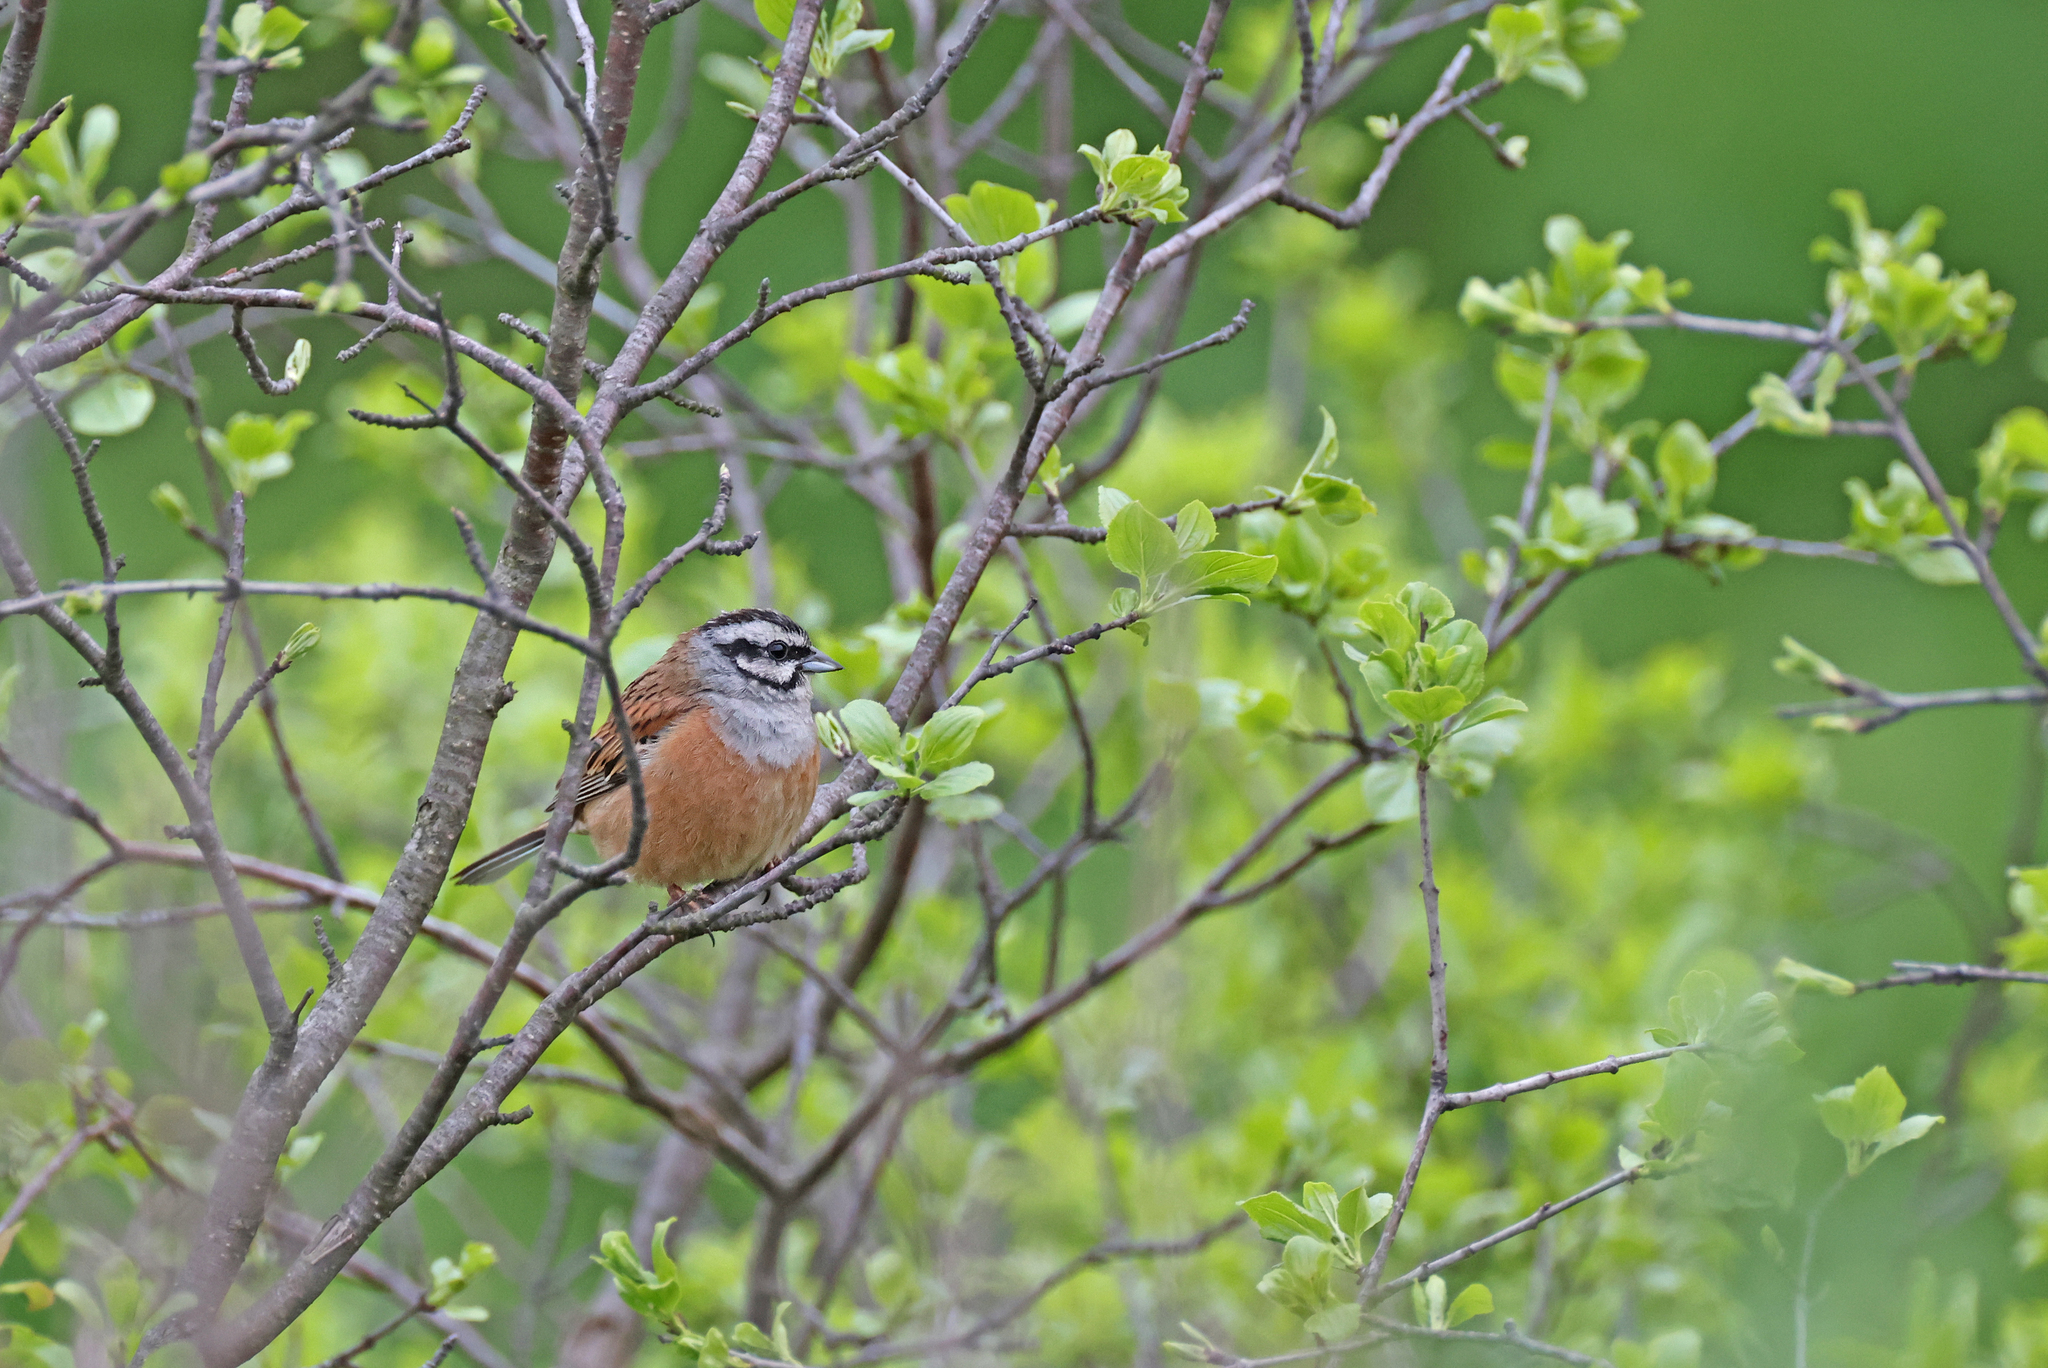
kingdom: Animalia
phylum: Chordata
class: Aves
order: Passeriformes
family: Emberizidae
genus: Emberiza
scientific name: Emberiza cia
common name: Rock bunting
